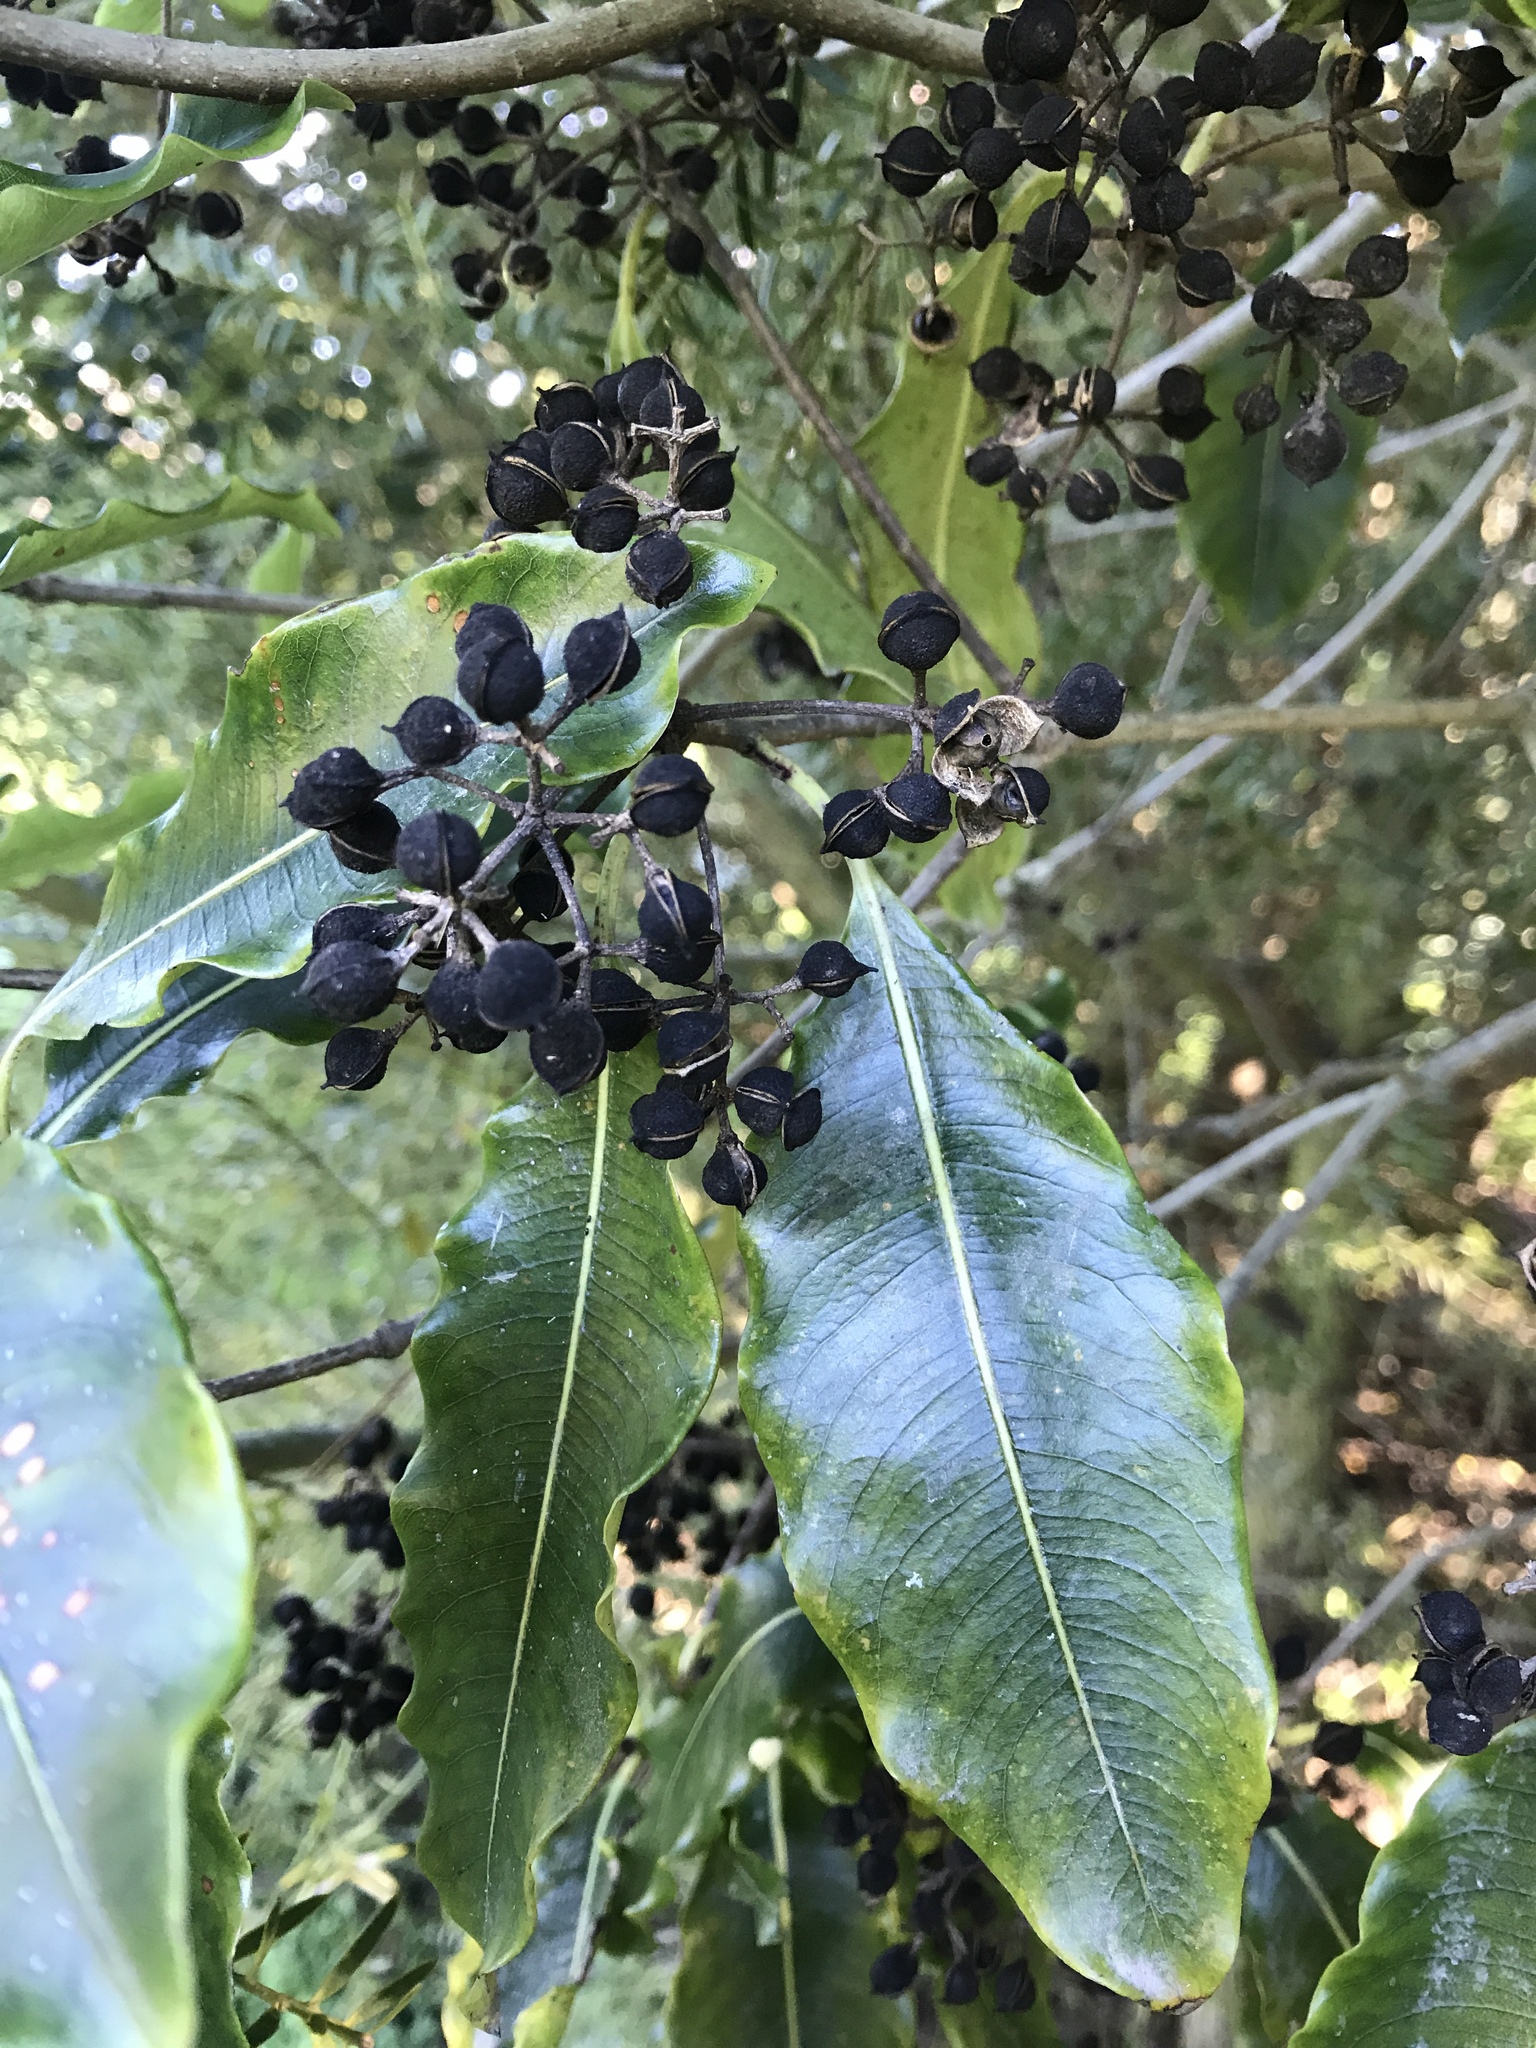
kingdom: Plantae
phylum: Tracheophyta
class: Magnoliopsida
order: Apiales
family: Pittosporaceae
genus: Pittosporum
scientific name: Pittosporum eugenioides
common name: Lemonwood
